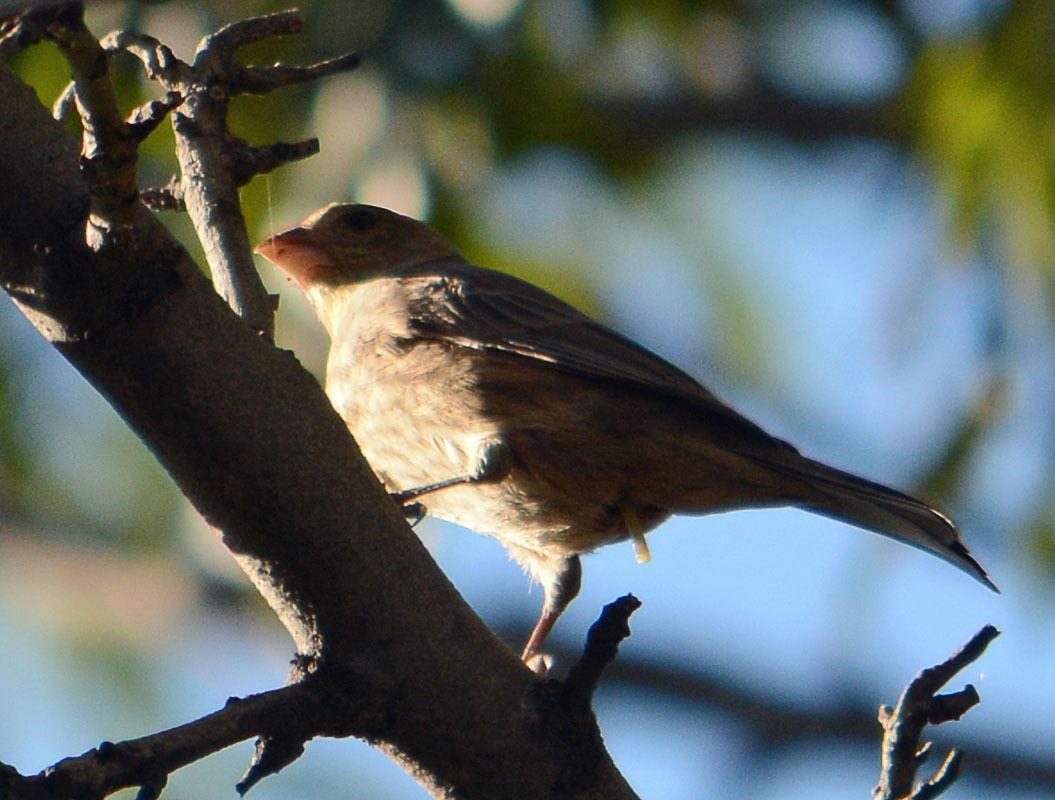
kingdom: Animalia
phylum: Chordata
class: Aves
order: Passeriformes
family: Fringillidae
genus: Haemorhous
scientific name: Haemorhous mexicanus
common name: House finch
